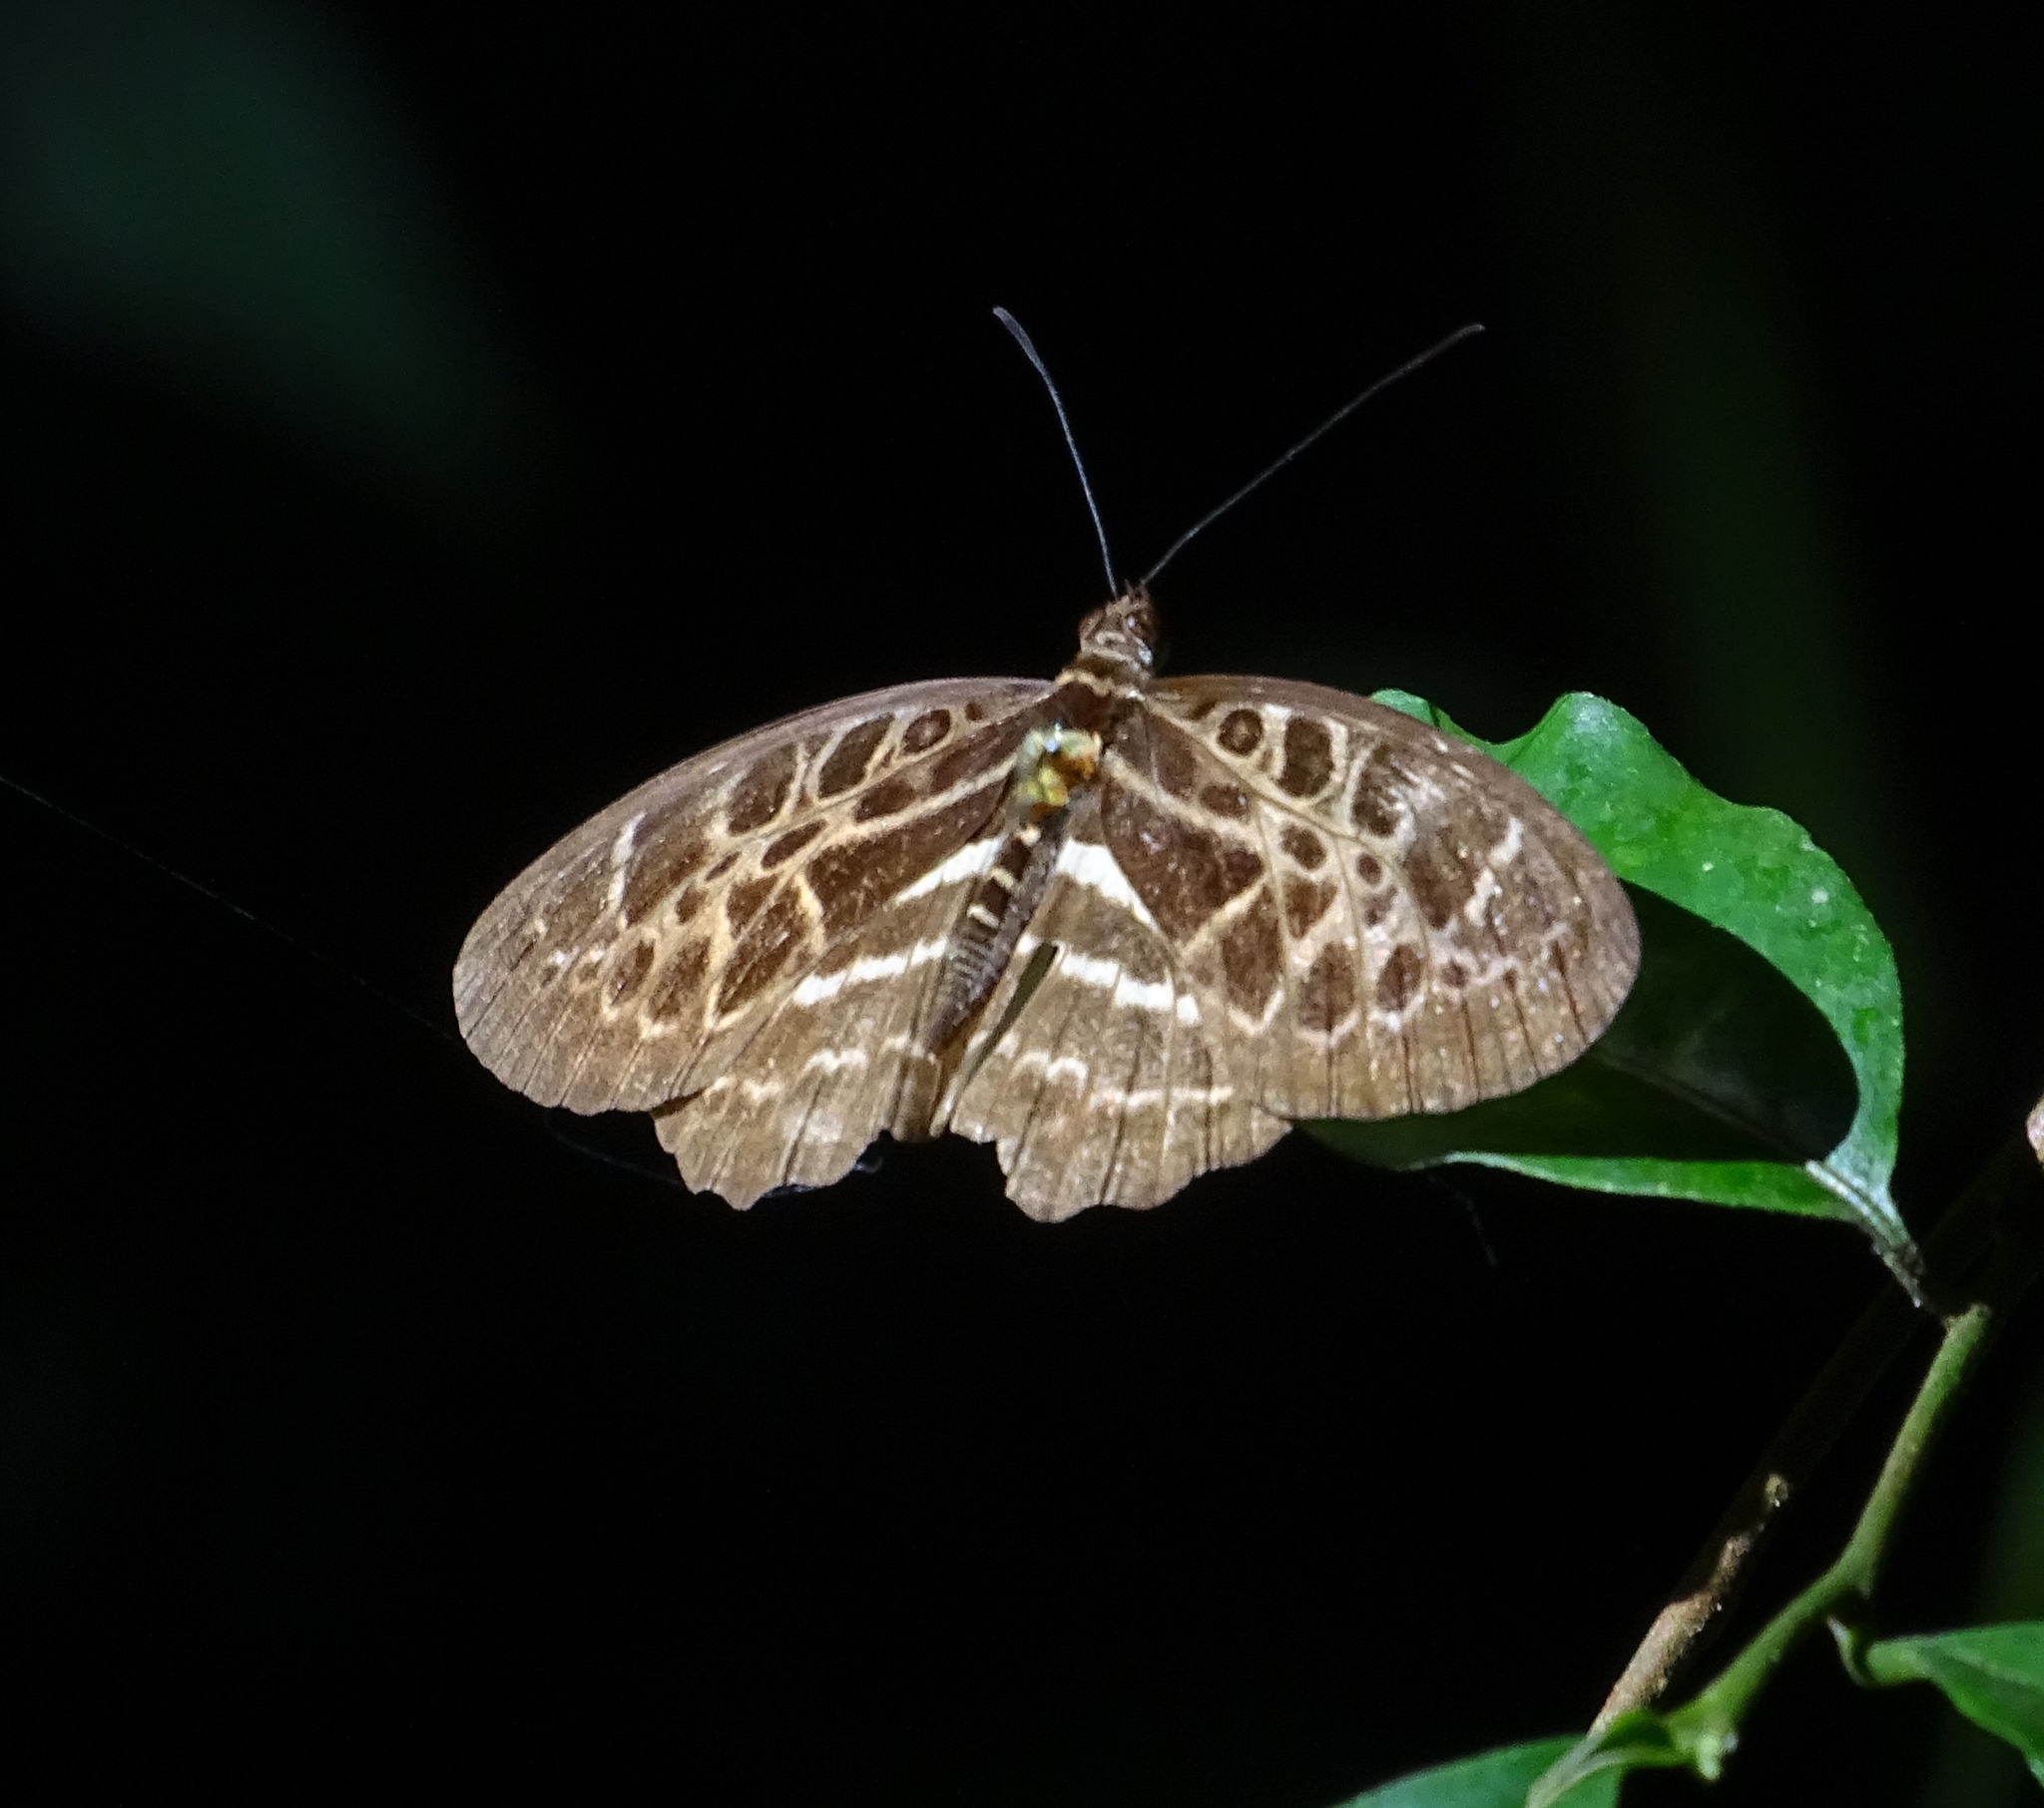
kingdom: Animalia
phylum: Arthropoda
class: Insecta
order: Lepidoptera
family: Nymphalidae
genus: Catuna
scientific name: Catuna
